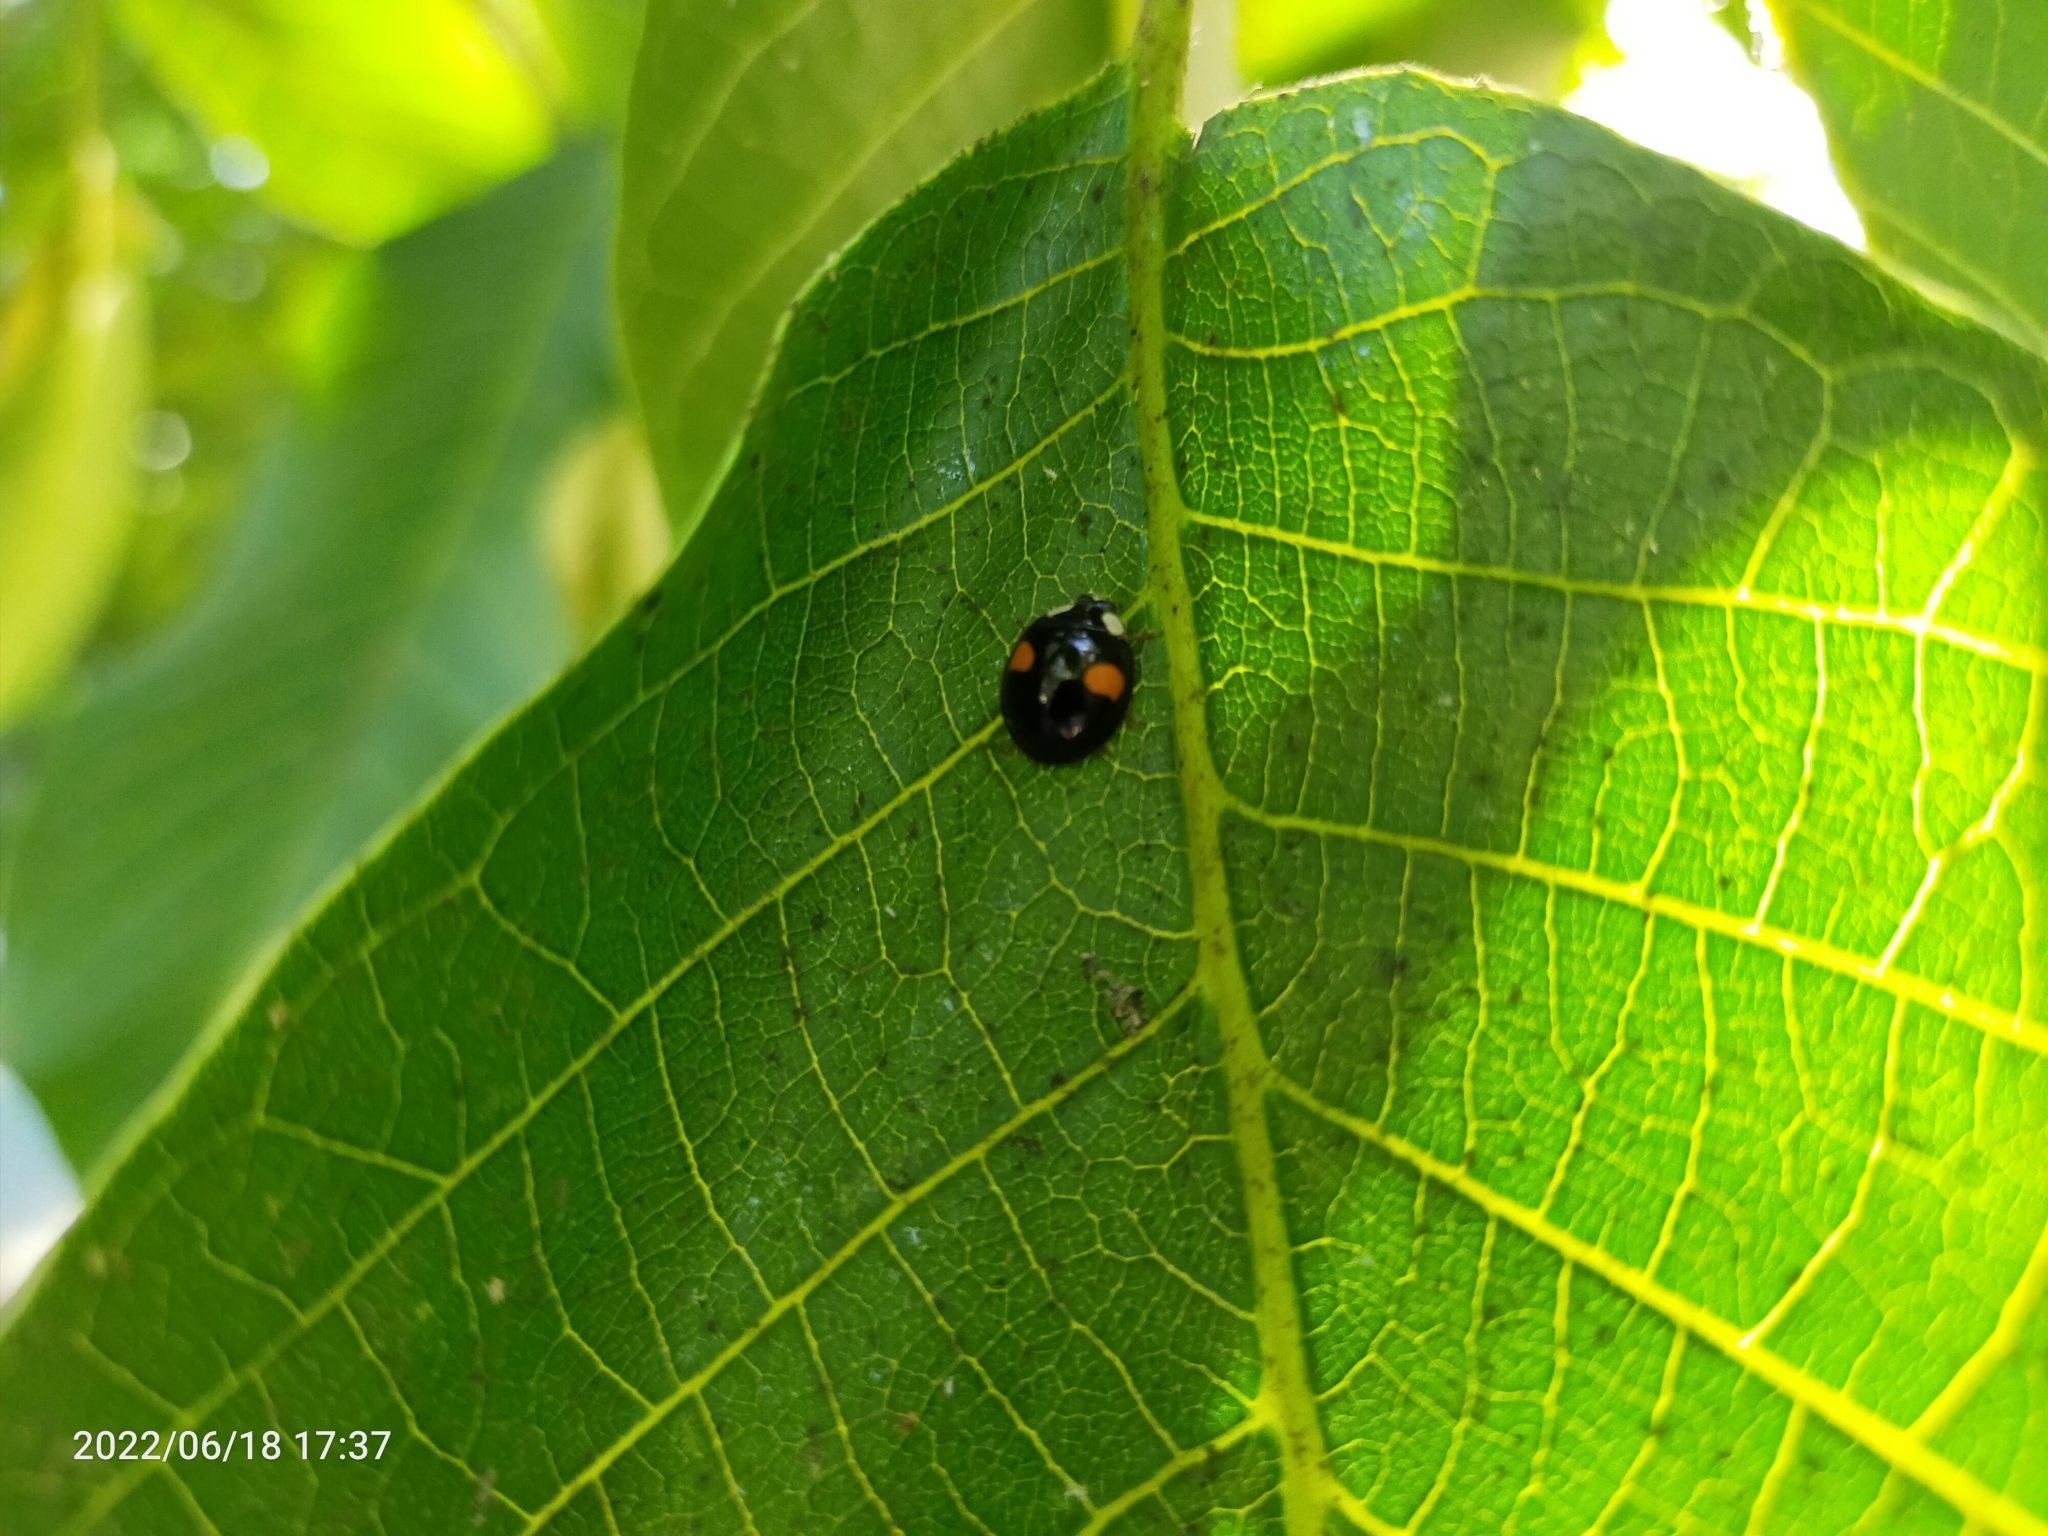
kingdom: Animalia
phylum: Arthropoda
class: Insecta
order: Coleoptera
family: Coccinellidae
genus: Harmonia
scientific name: Harmonia axyridis
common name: Harlequin ladybird
